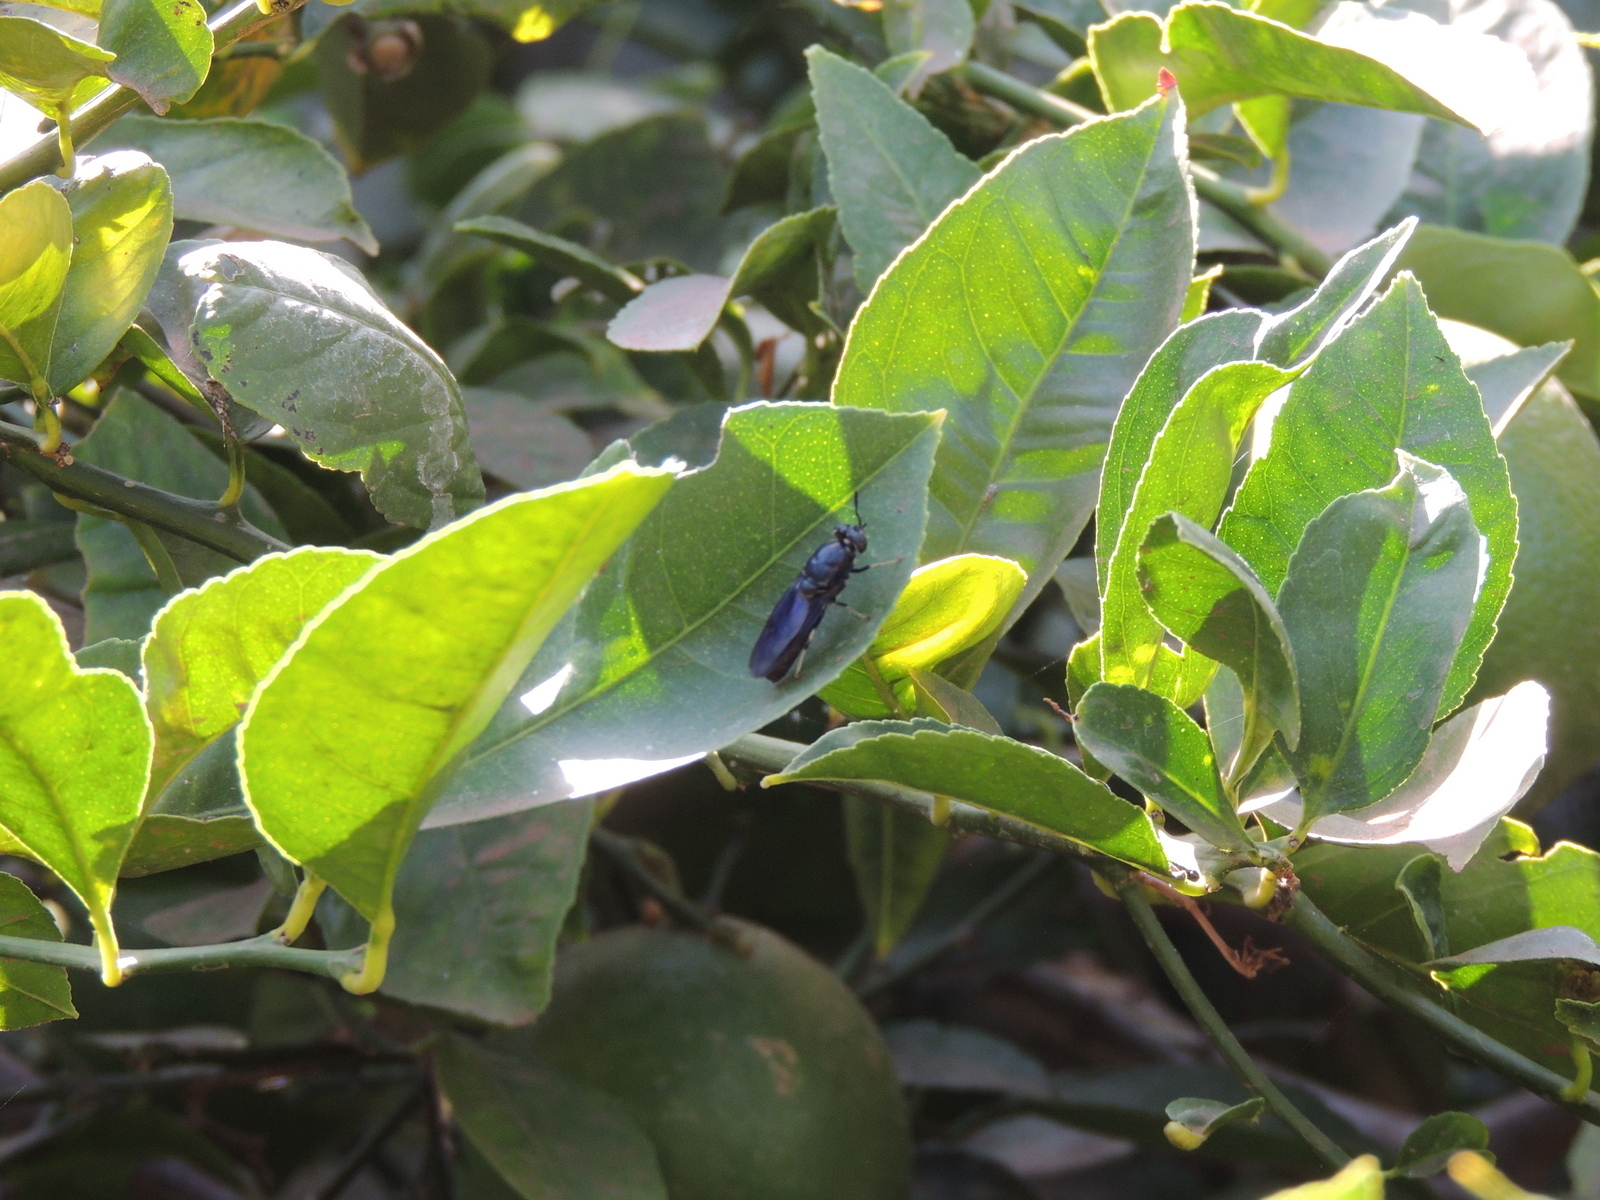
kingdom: Animalia
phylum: Arthropoda
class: Insecta
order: Diptera
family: Stratiomyidae
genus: Hermetia
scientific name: Hermetia illucens
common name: Black soldier fly
